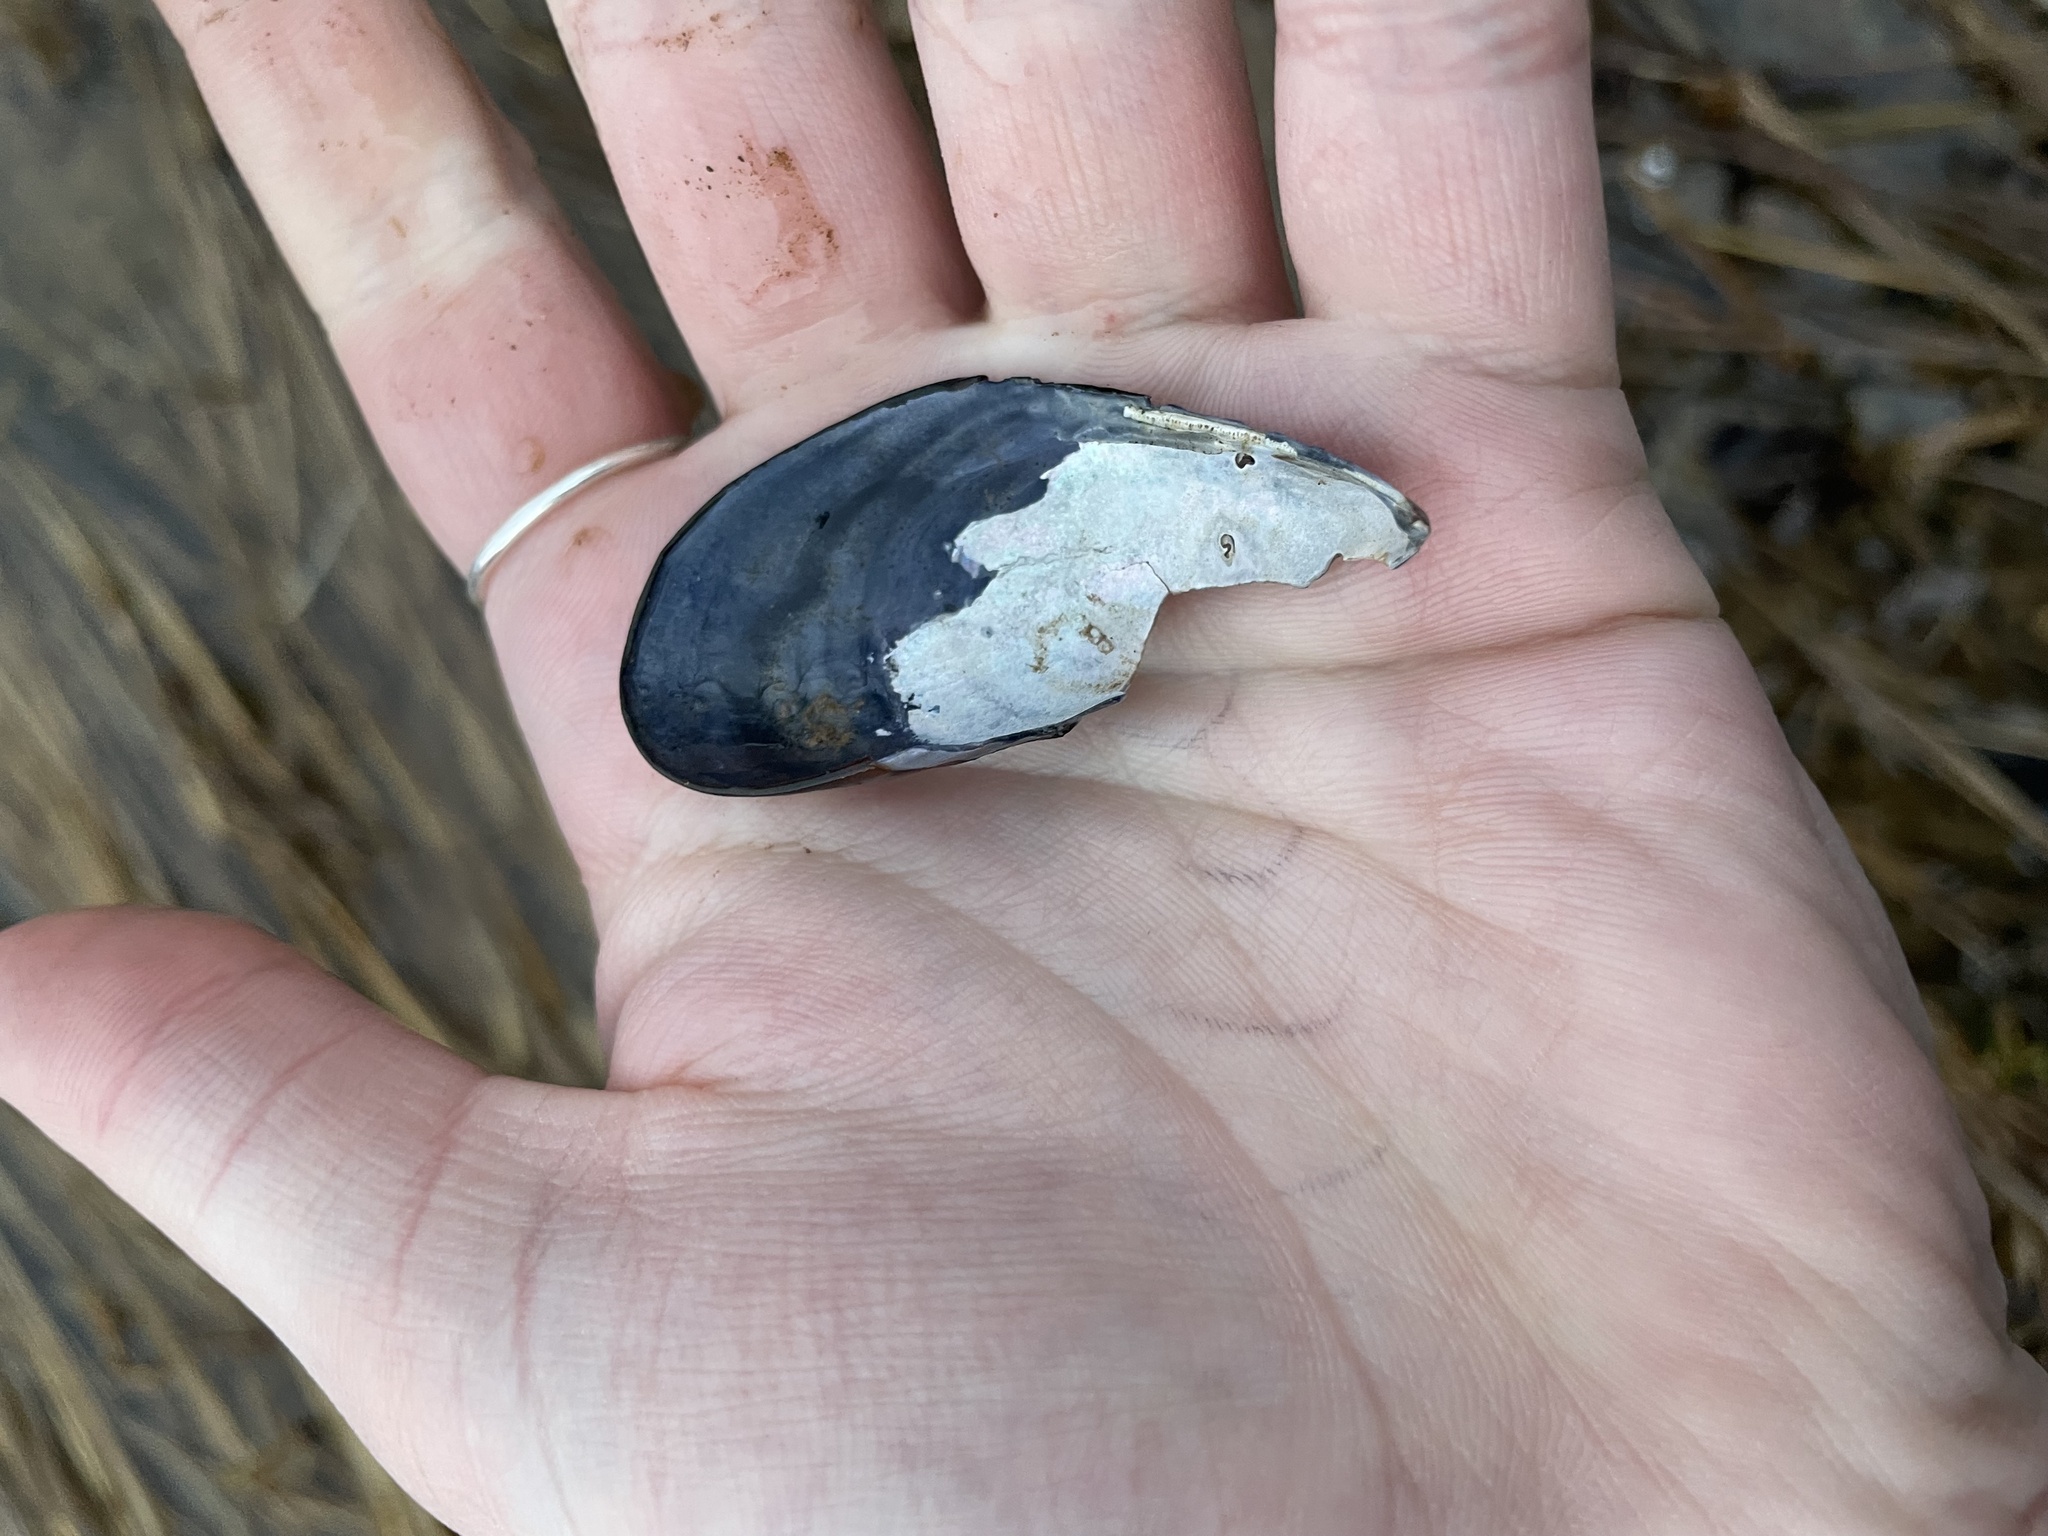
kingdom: Animalia
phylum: Mollusca
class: Bivalvia
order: Mytilida
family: Mytilidae
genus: Mytilus
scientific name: Mytilus
